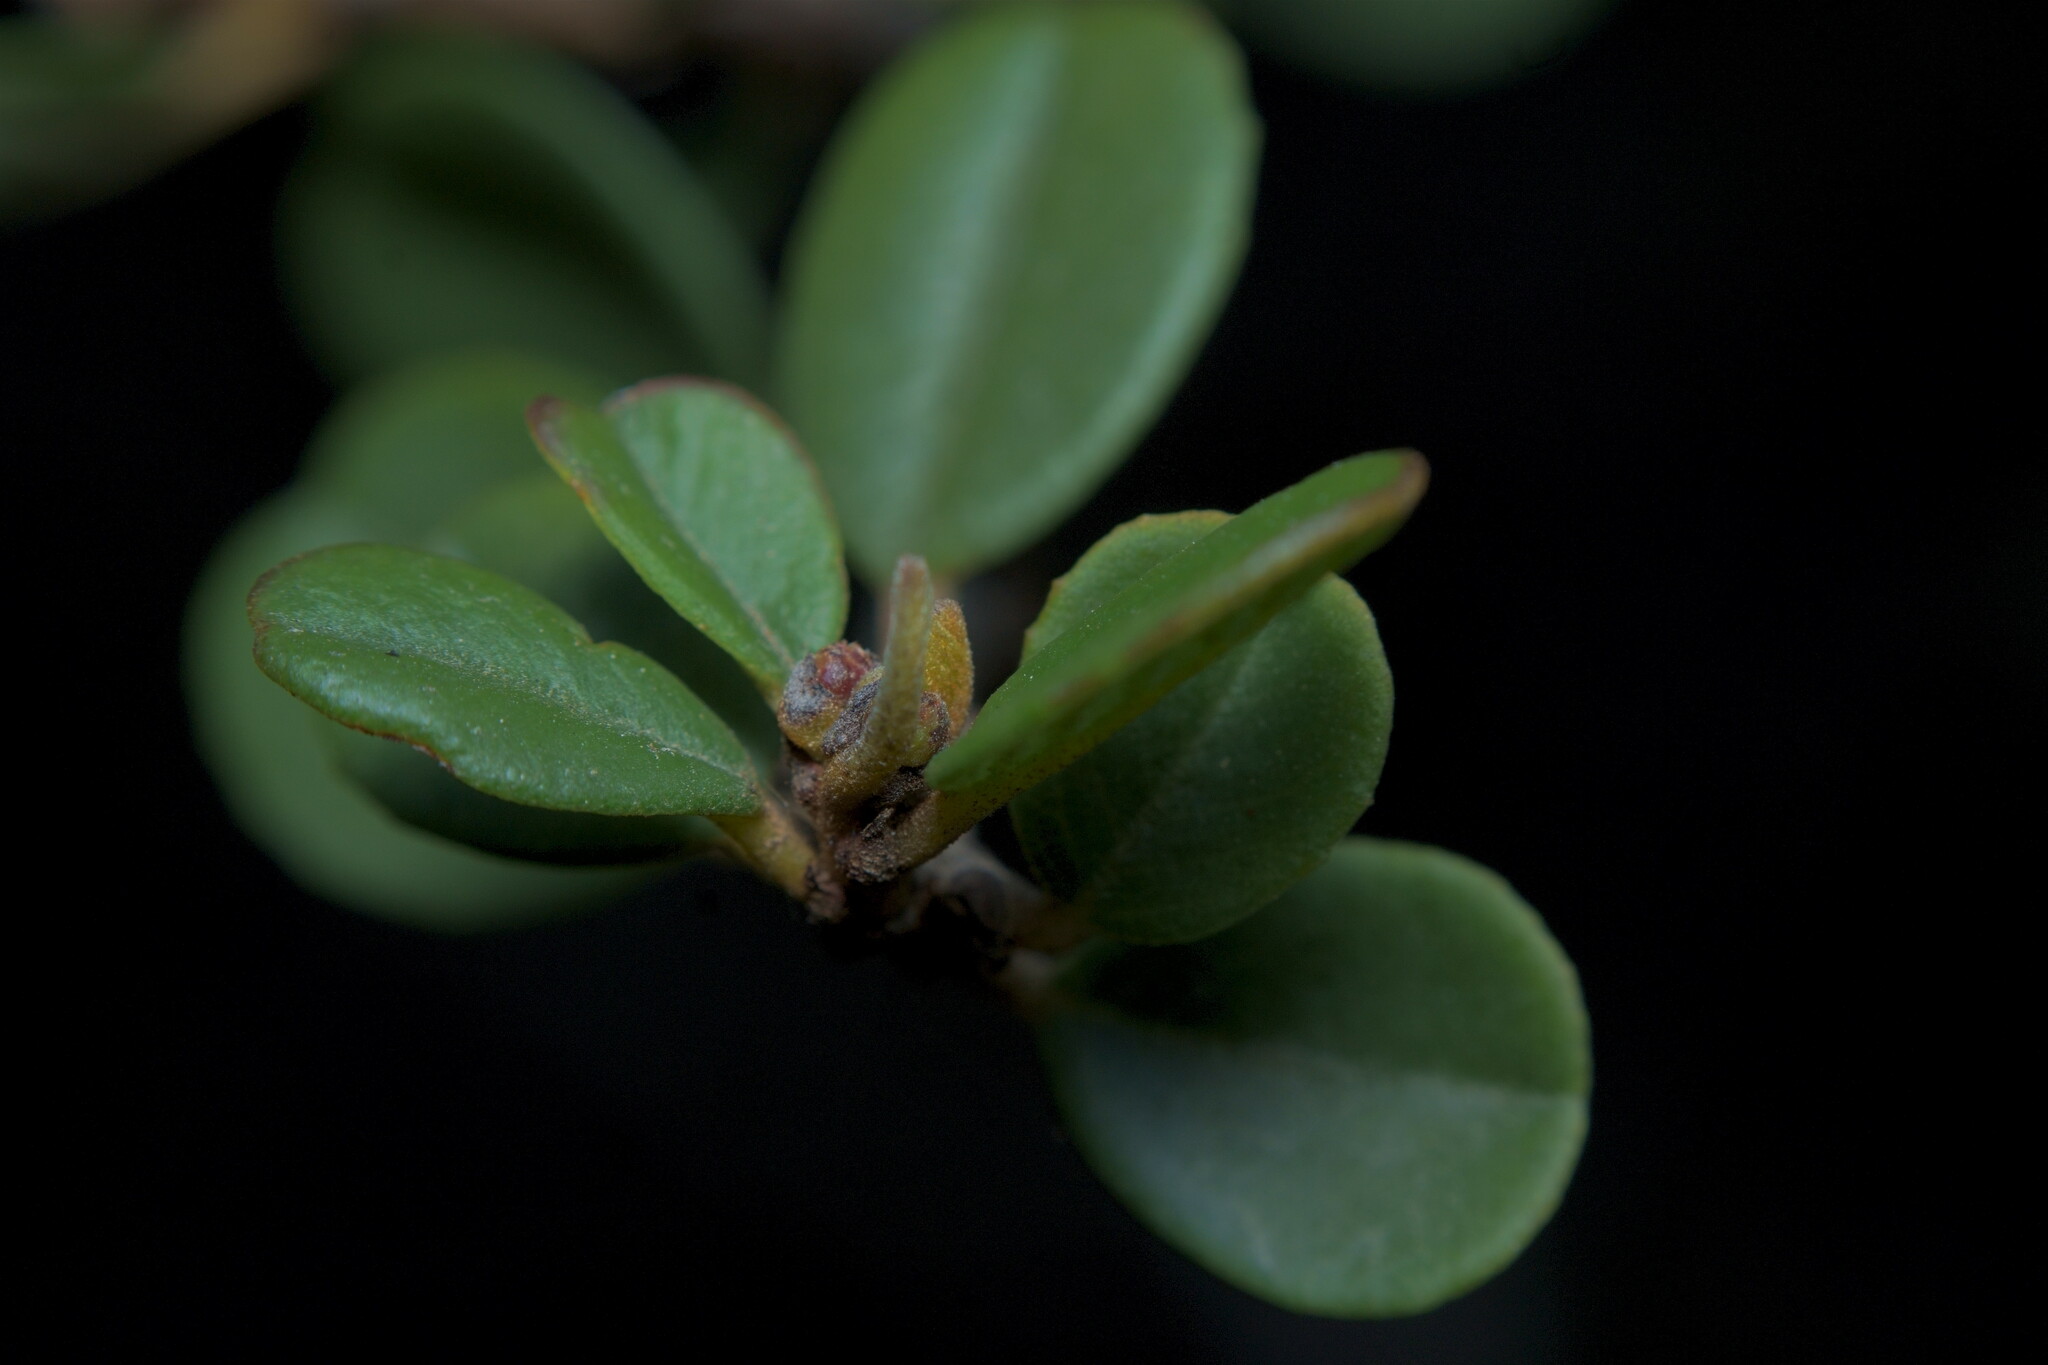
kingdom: Plantae
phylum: Tracheophyta
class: Magnoliopsida
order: Rosales
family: Rhamnaceae
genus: Ceanothus
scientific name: Ceanothus verrucosus
